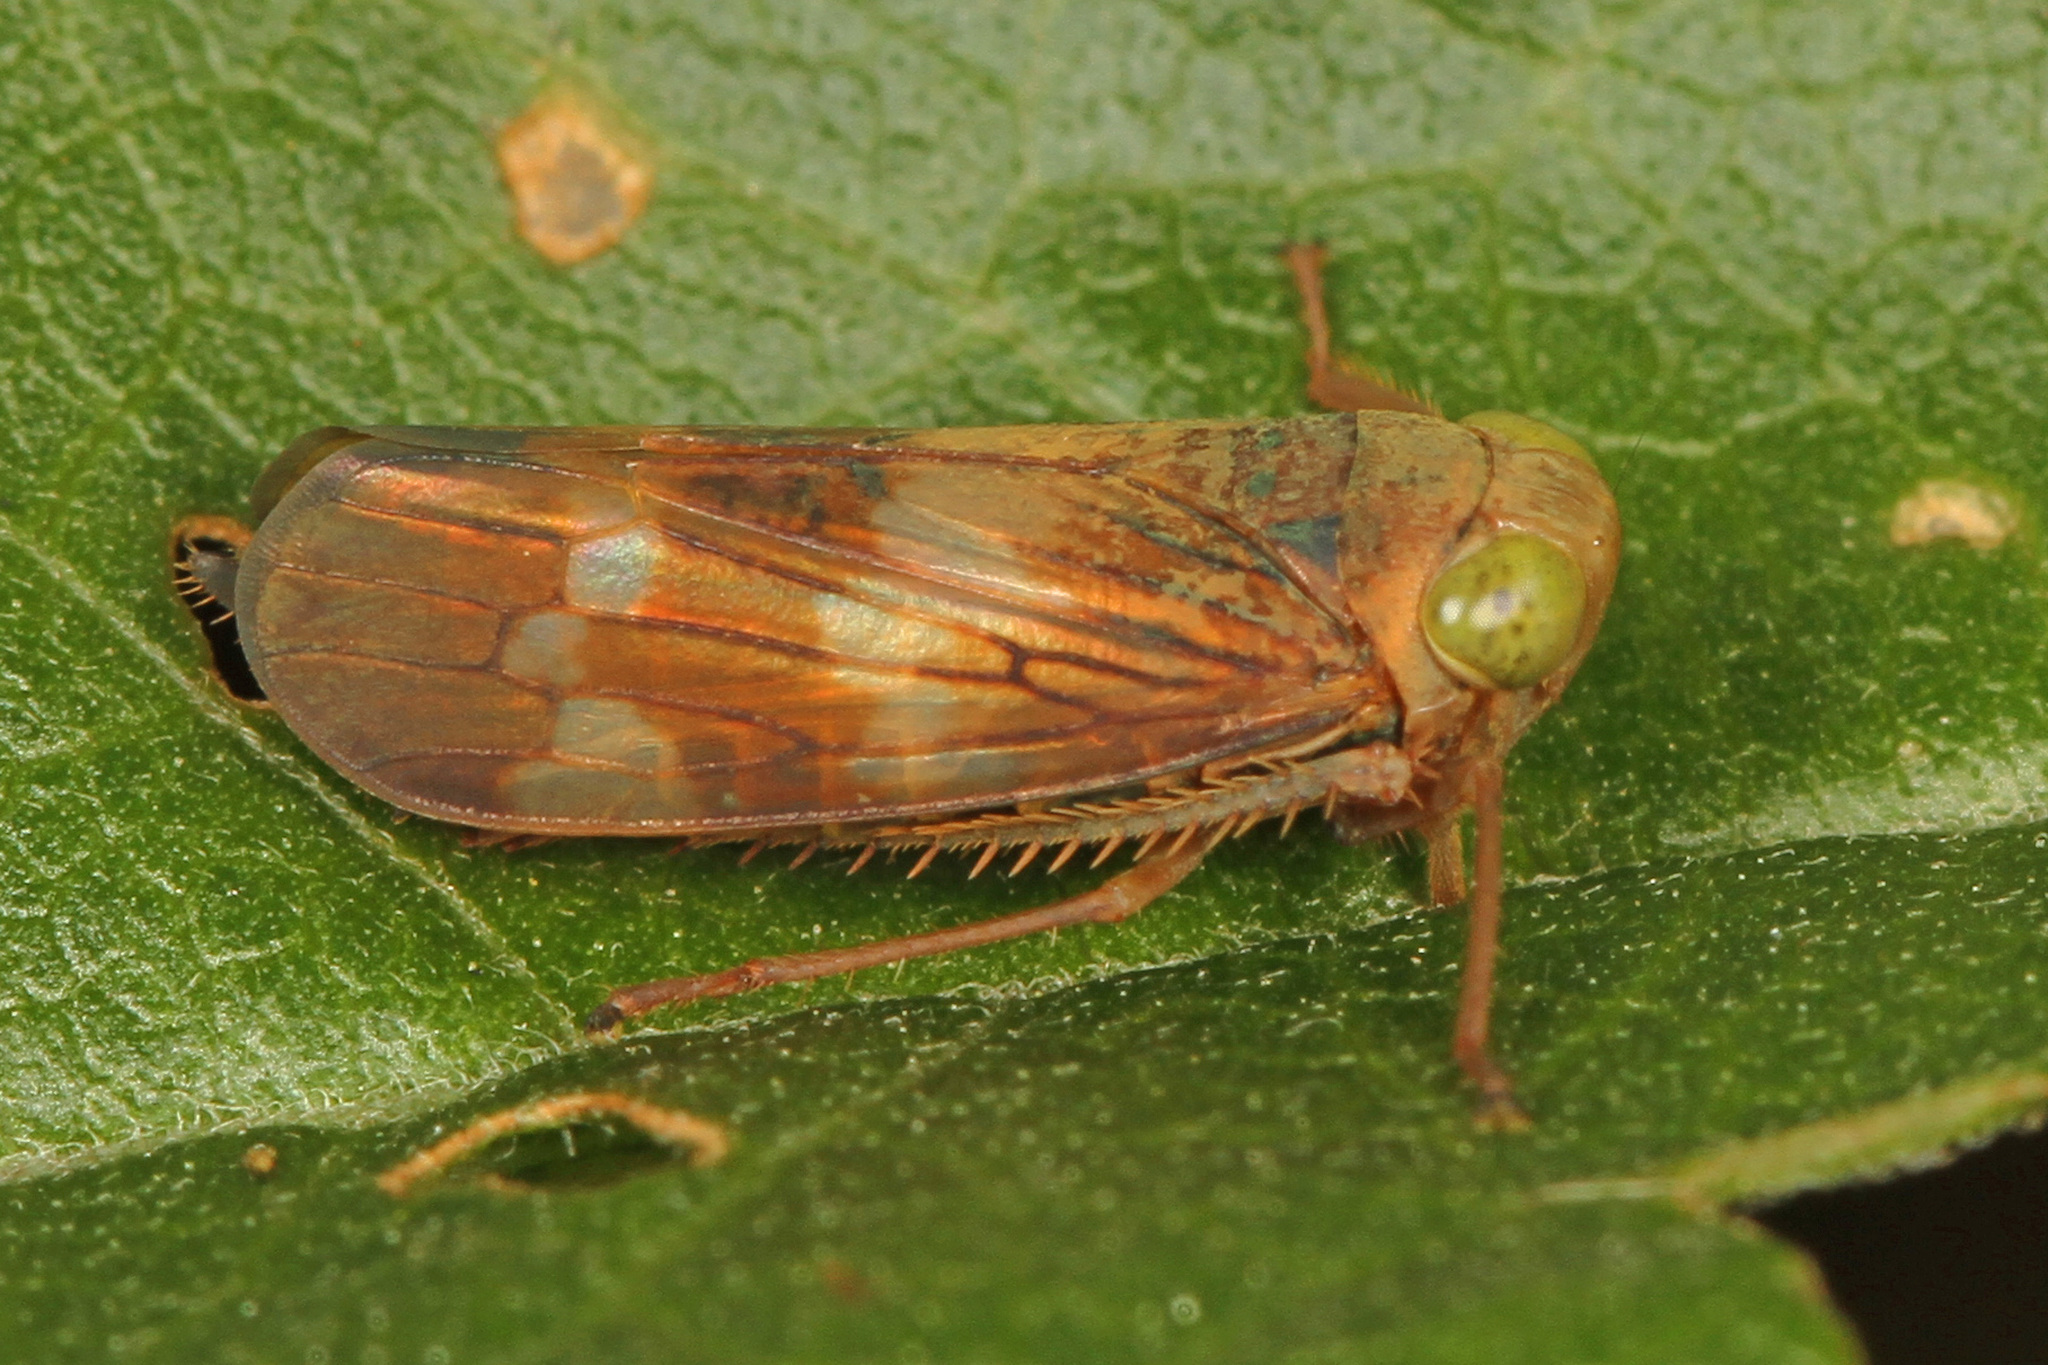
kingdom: Animalia
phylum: Arthropoda
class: Insecta
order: Hemiptera
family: Cicadellidae
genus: Jikradia
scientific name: Jikradia olitoria
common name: Coppery leafhopper
